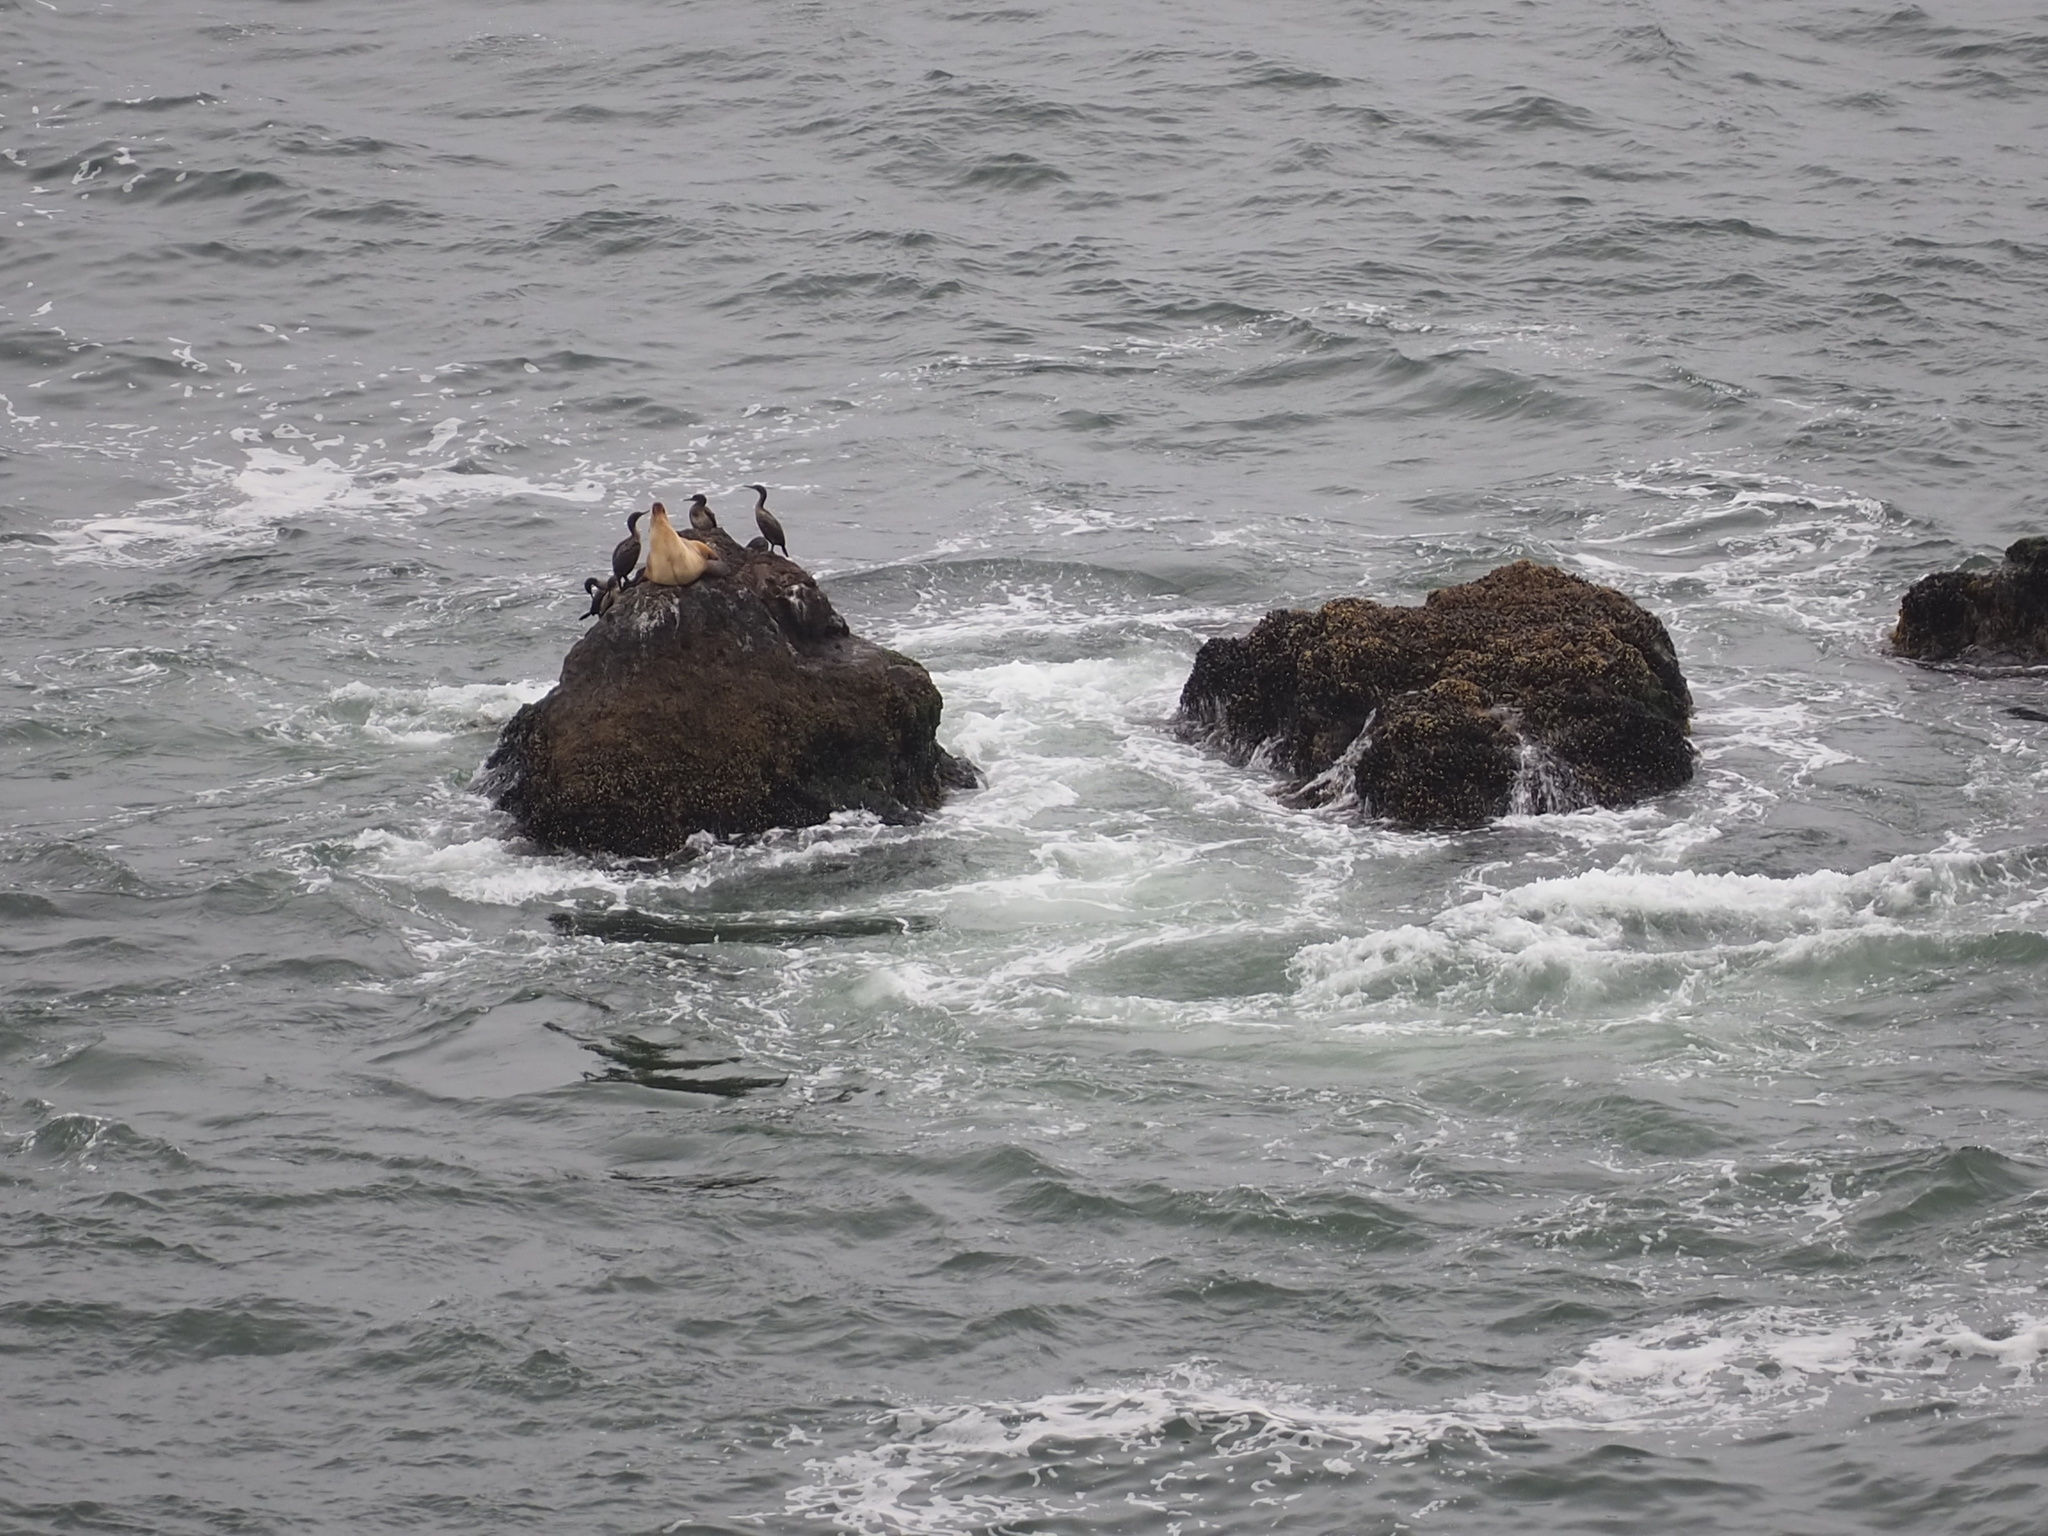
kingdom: Animalia
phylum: Chordata
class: Aves
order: Suliformes
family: Phalacrocoracidae
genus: Urile
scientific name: Urile penicillatus
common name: Brandt's cormorant
